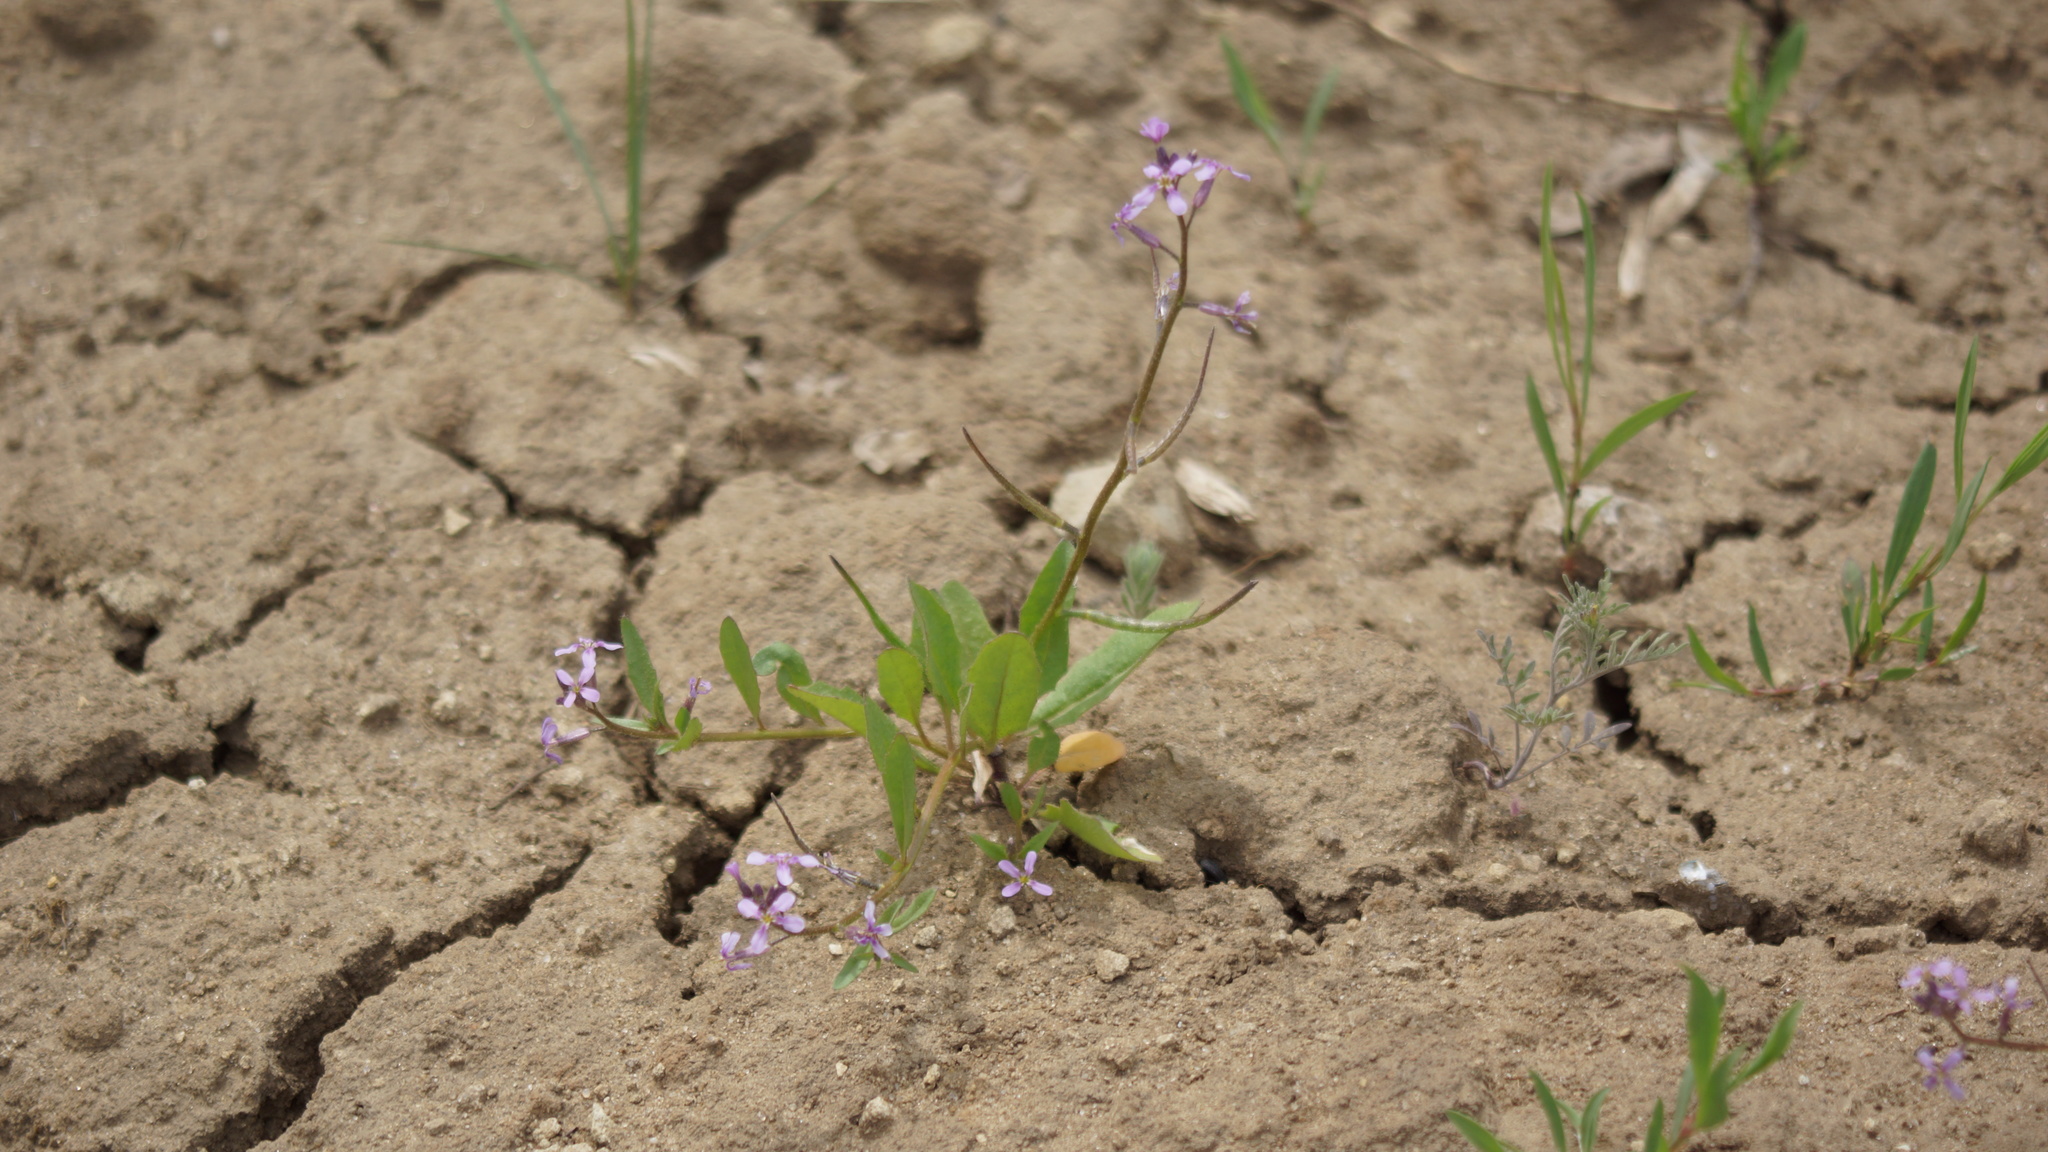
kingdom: Plantae
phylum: Tracheophyta
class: Magnoliopsida
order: Brassicales
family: Brassicaceae
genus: Chorispora
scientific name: Chorispora tenella
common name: Crossflower
